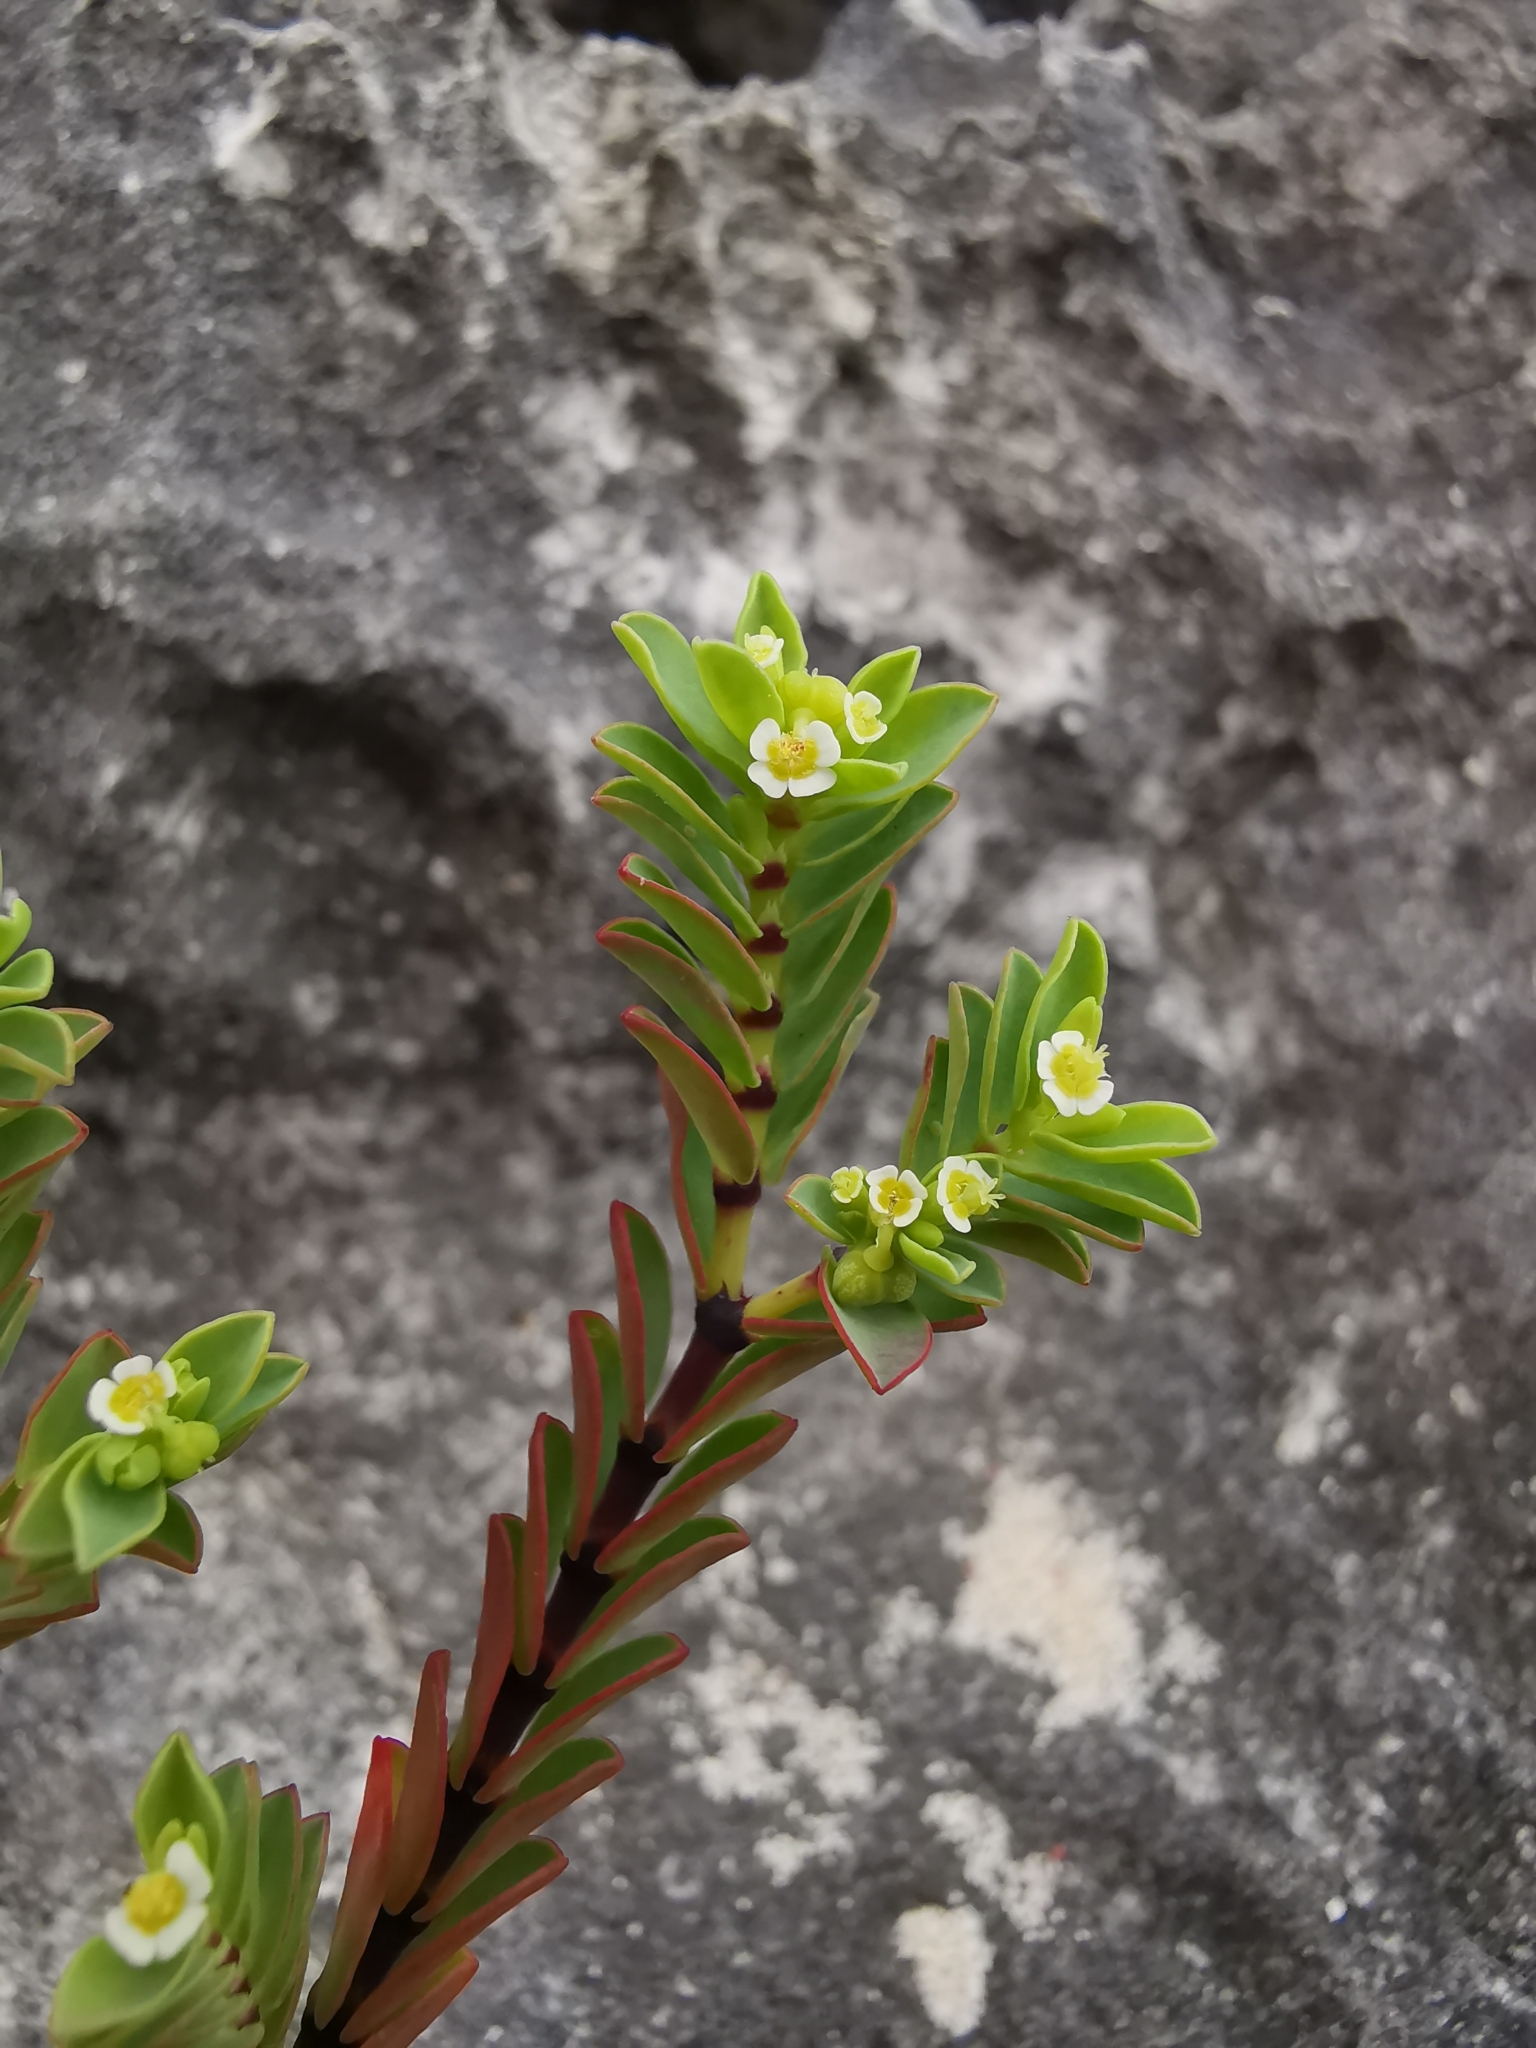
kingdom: Plantae
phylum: Tracheophyta
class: Magnoliopsida
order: Malpighiales
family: Euphorbiaceae
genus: Euphorbia
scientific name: Euphorbia mesembryanthemifolia
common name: Coastal beach sandmat
